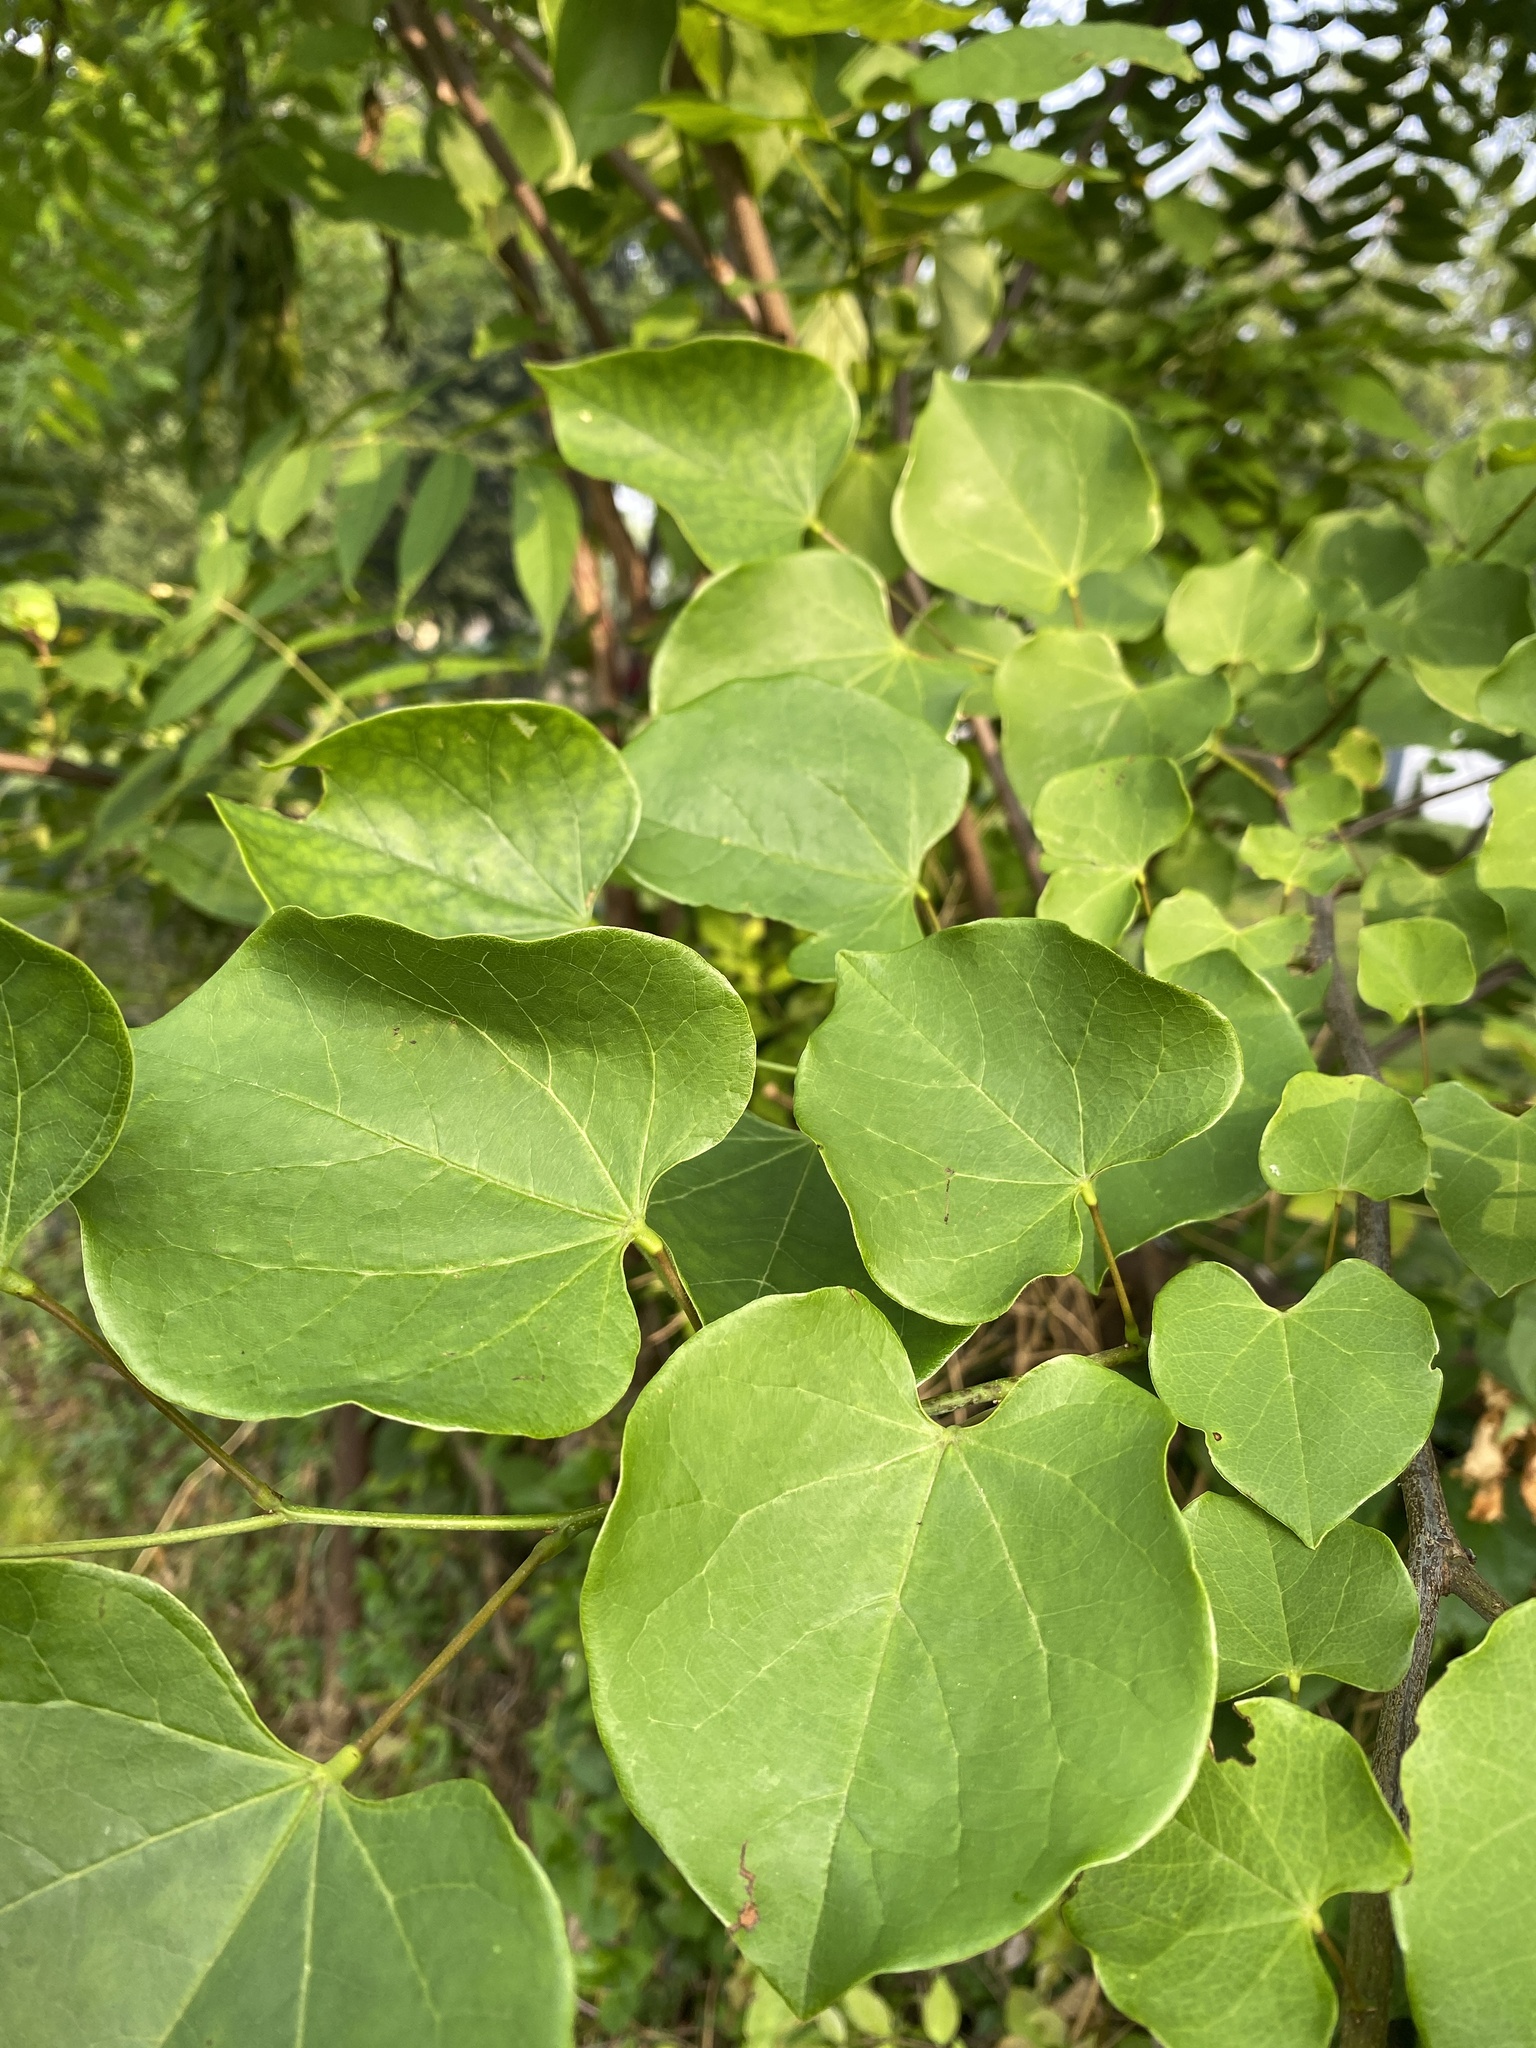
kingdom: Plantae
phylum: Tracheophyta
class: Magnoliopsida
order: Fabales
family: Fabaceae
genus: Cercis
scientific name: Cercis canadensis
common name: Eastern redbud
